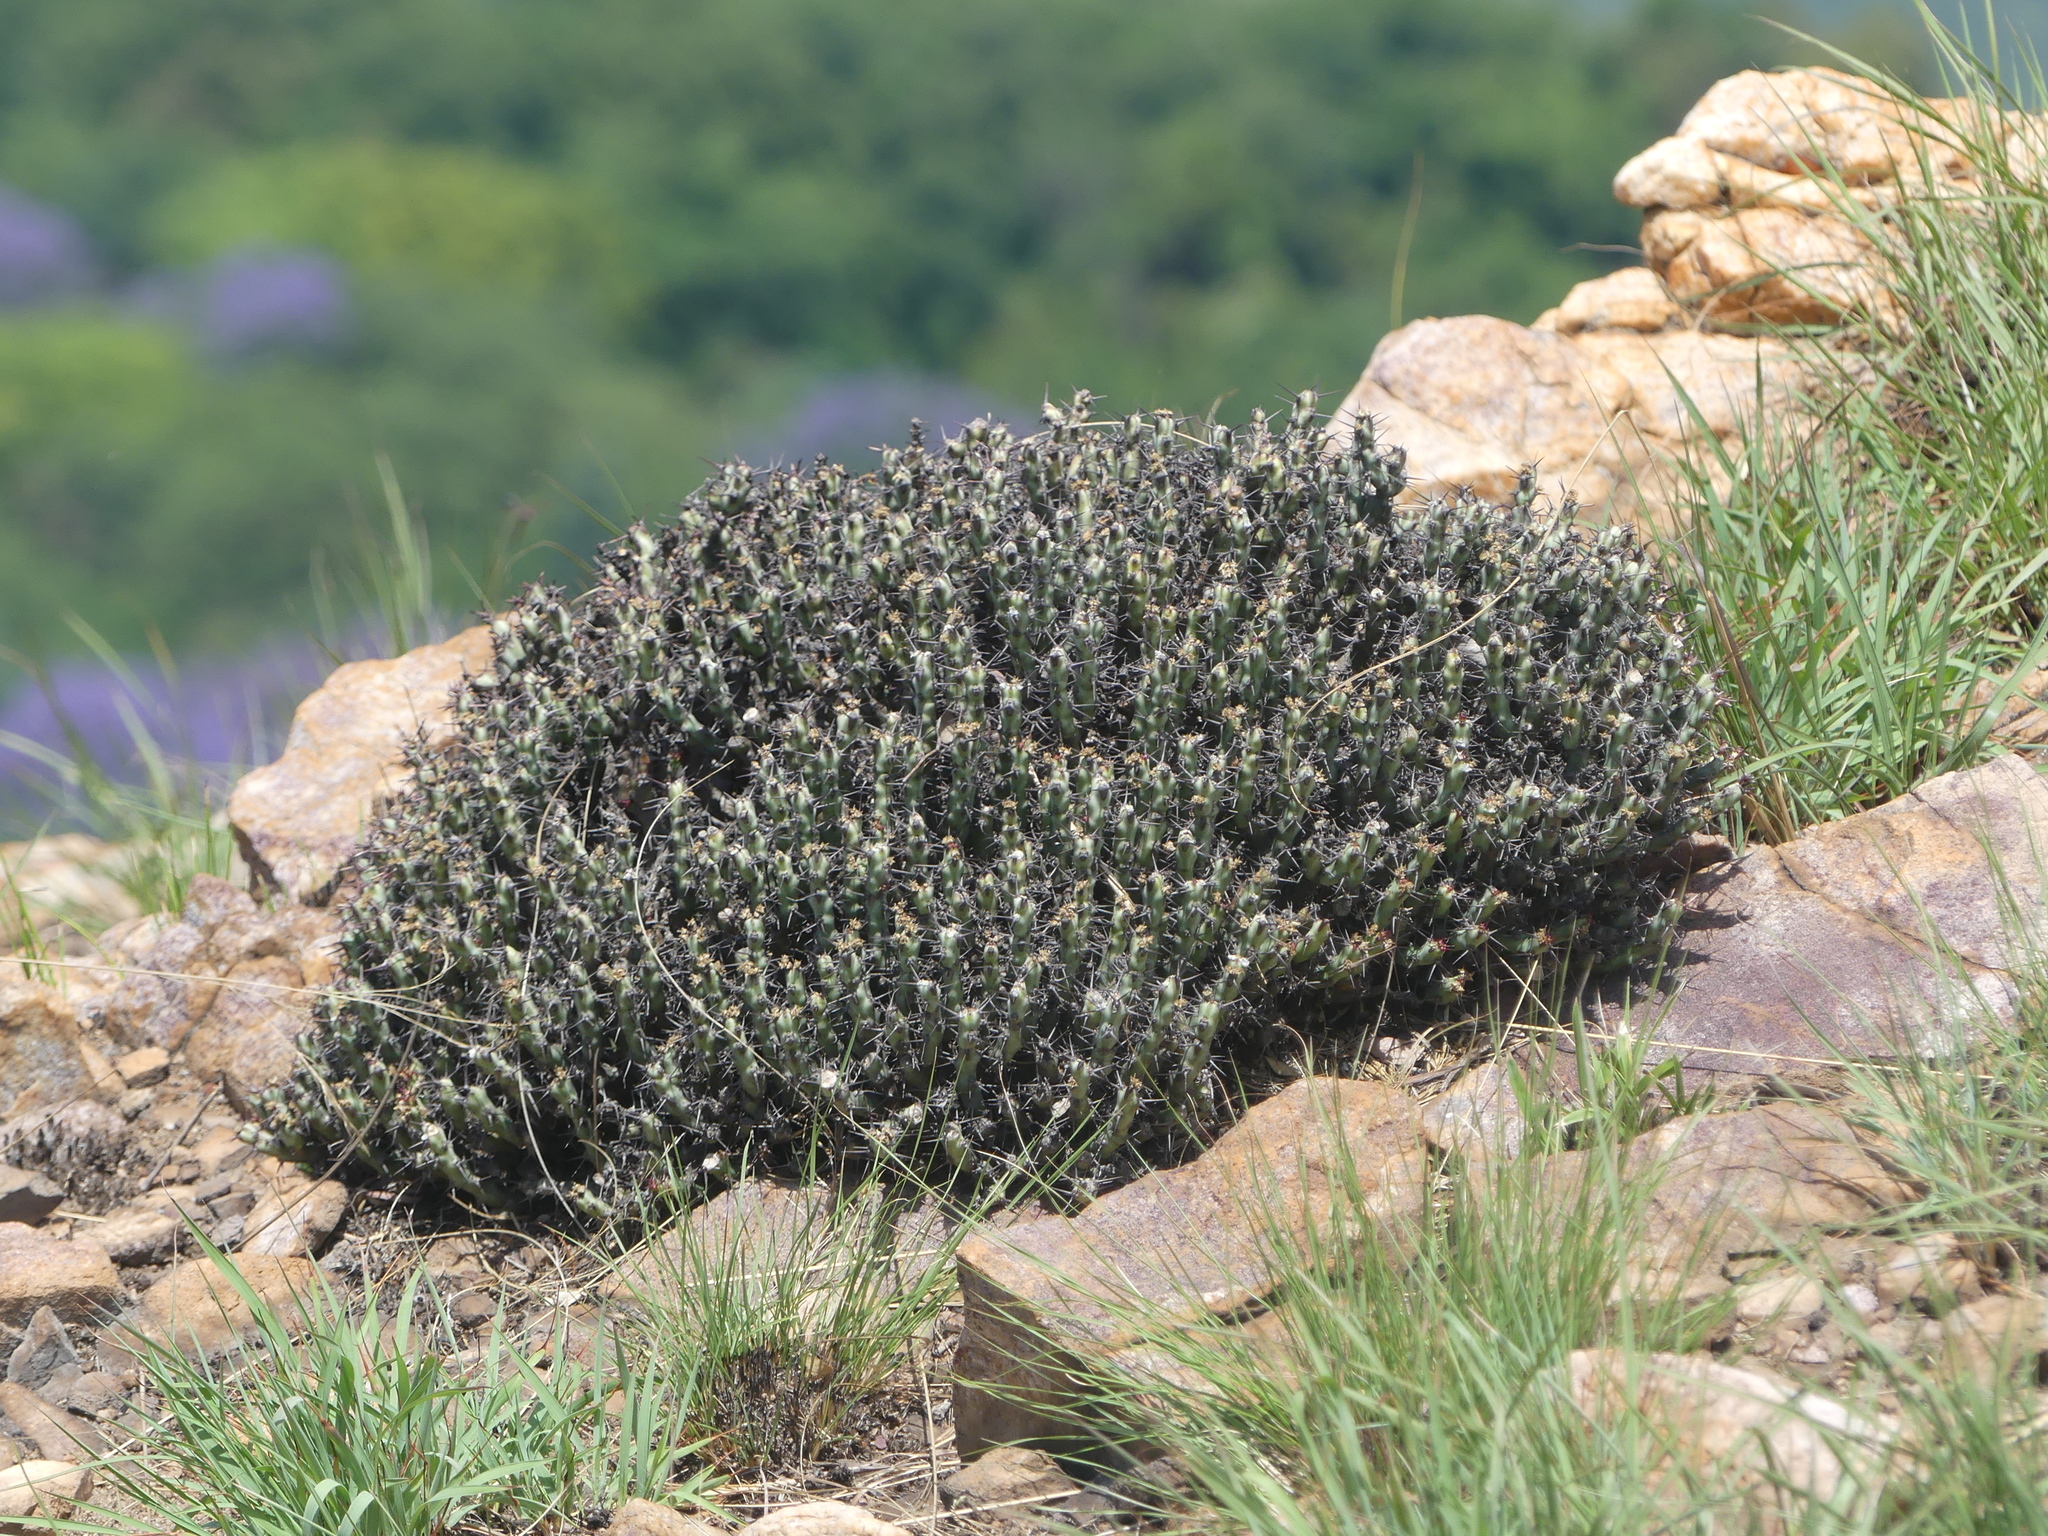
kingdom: Plantae
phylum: Tracheophyta
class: Magnoliopsida
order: Malpighiales
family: Euphorbiaceae
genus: Euphorbia
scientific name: Euphorbia schinzii
